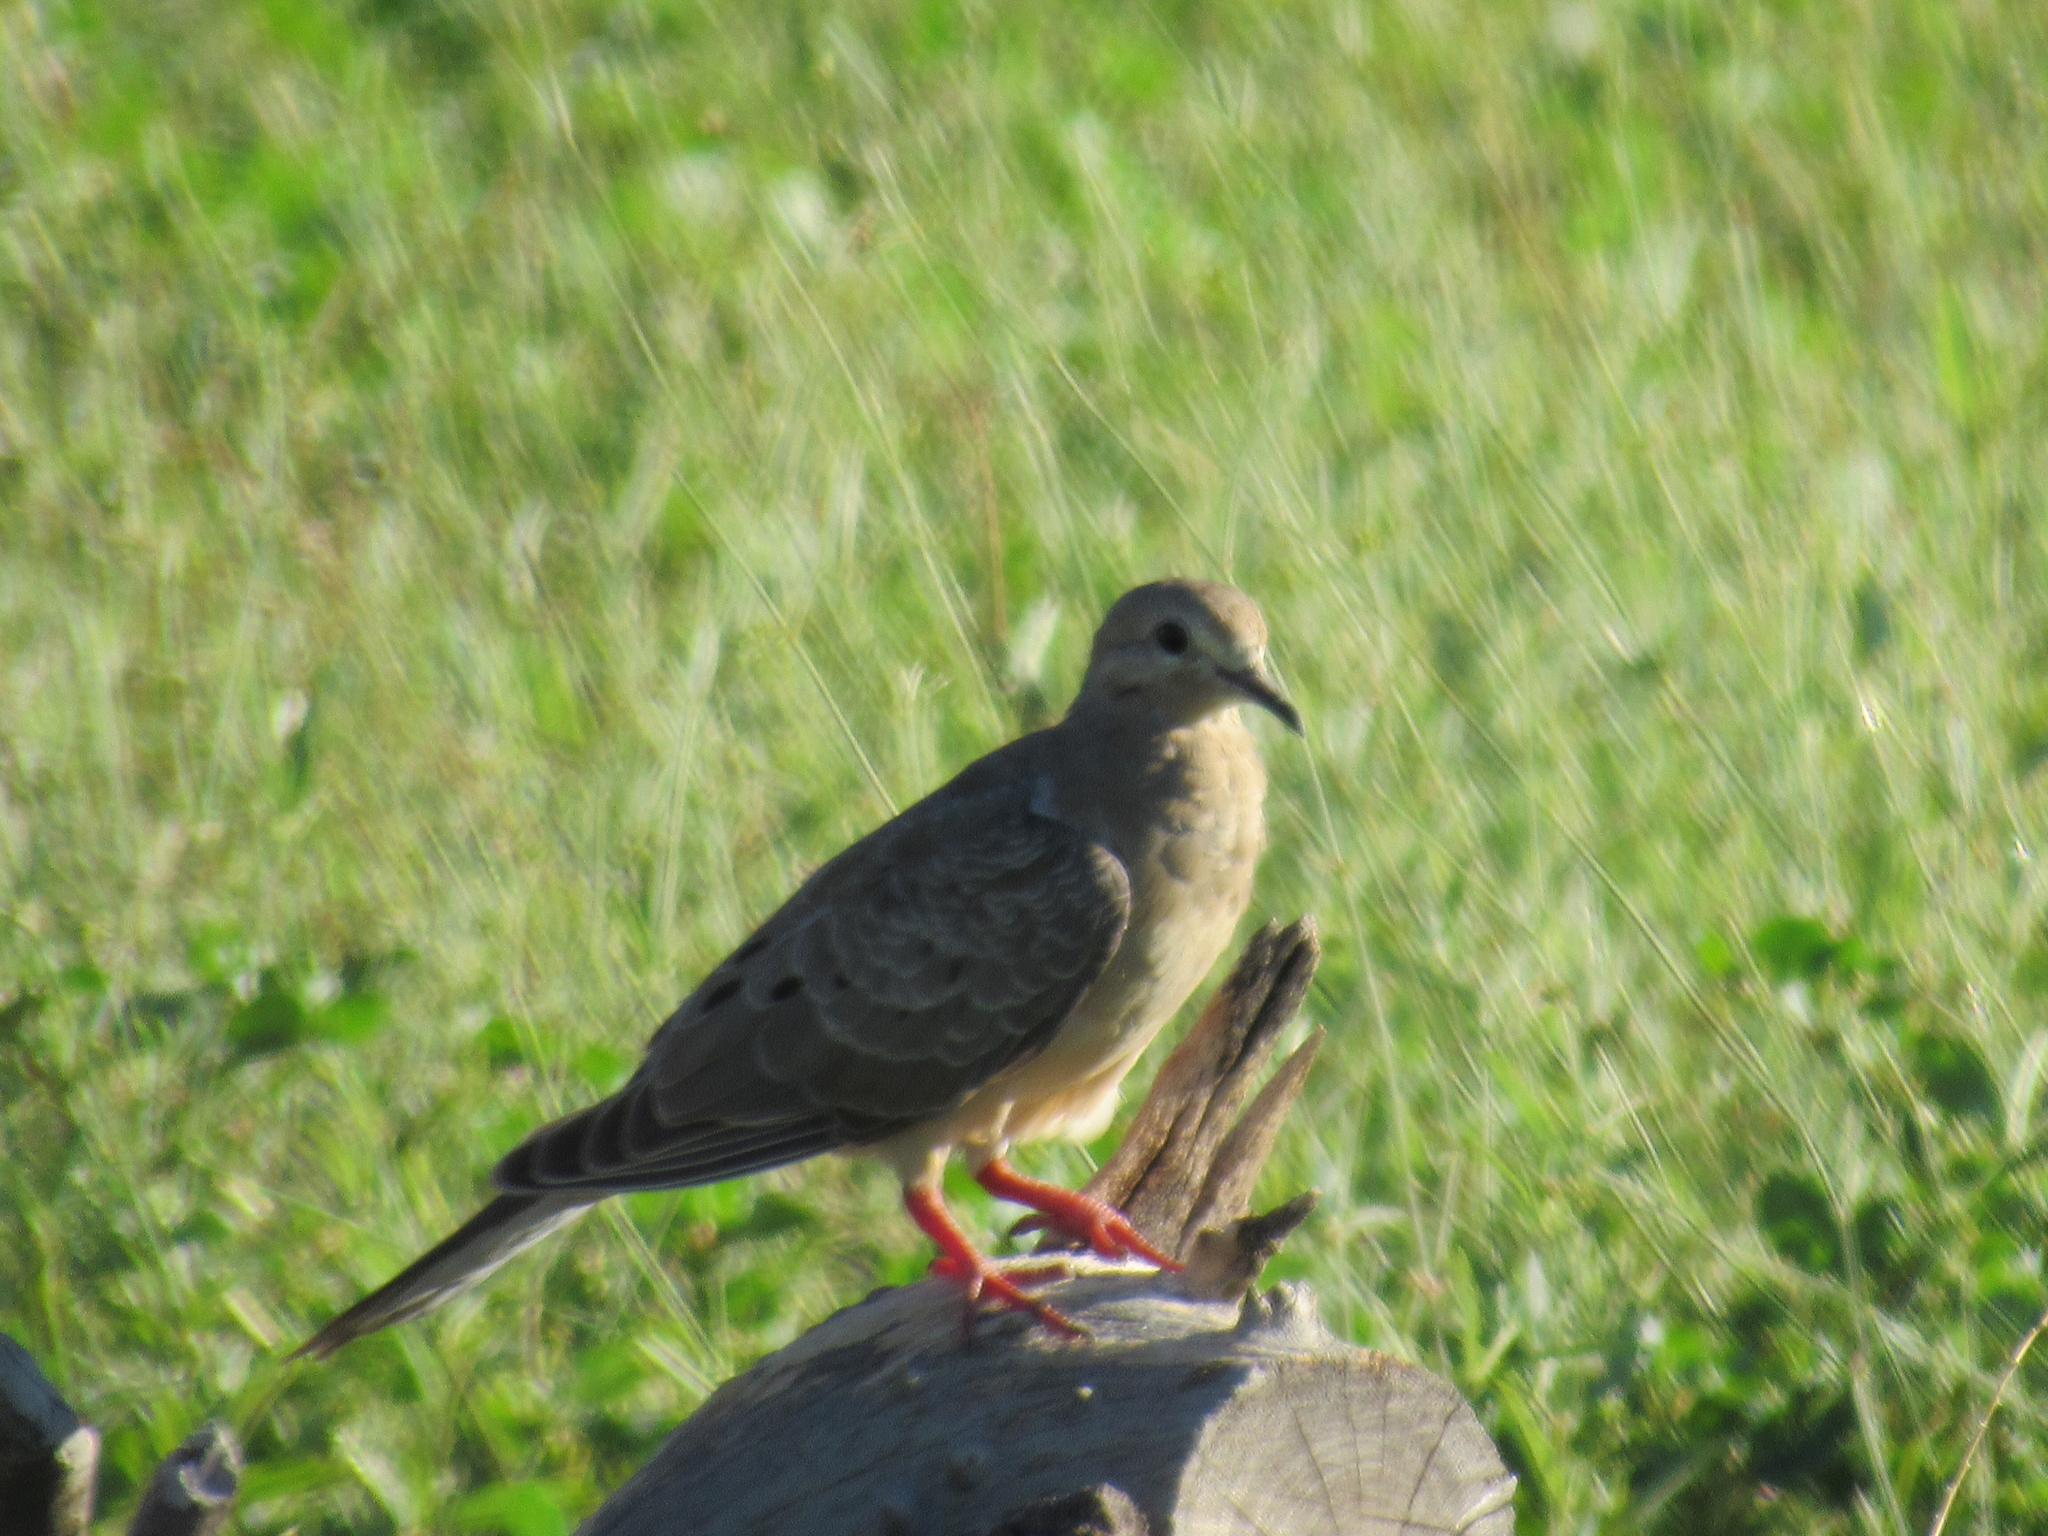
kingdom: Animalia
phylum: Chordata
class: Aves
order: Columbiformes
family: Columbidae
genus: Zenaida
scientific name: Zenaida macroura
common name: Mourning dove
